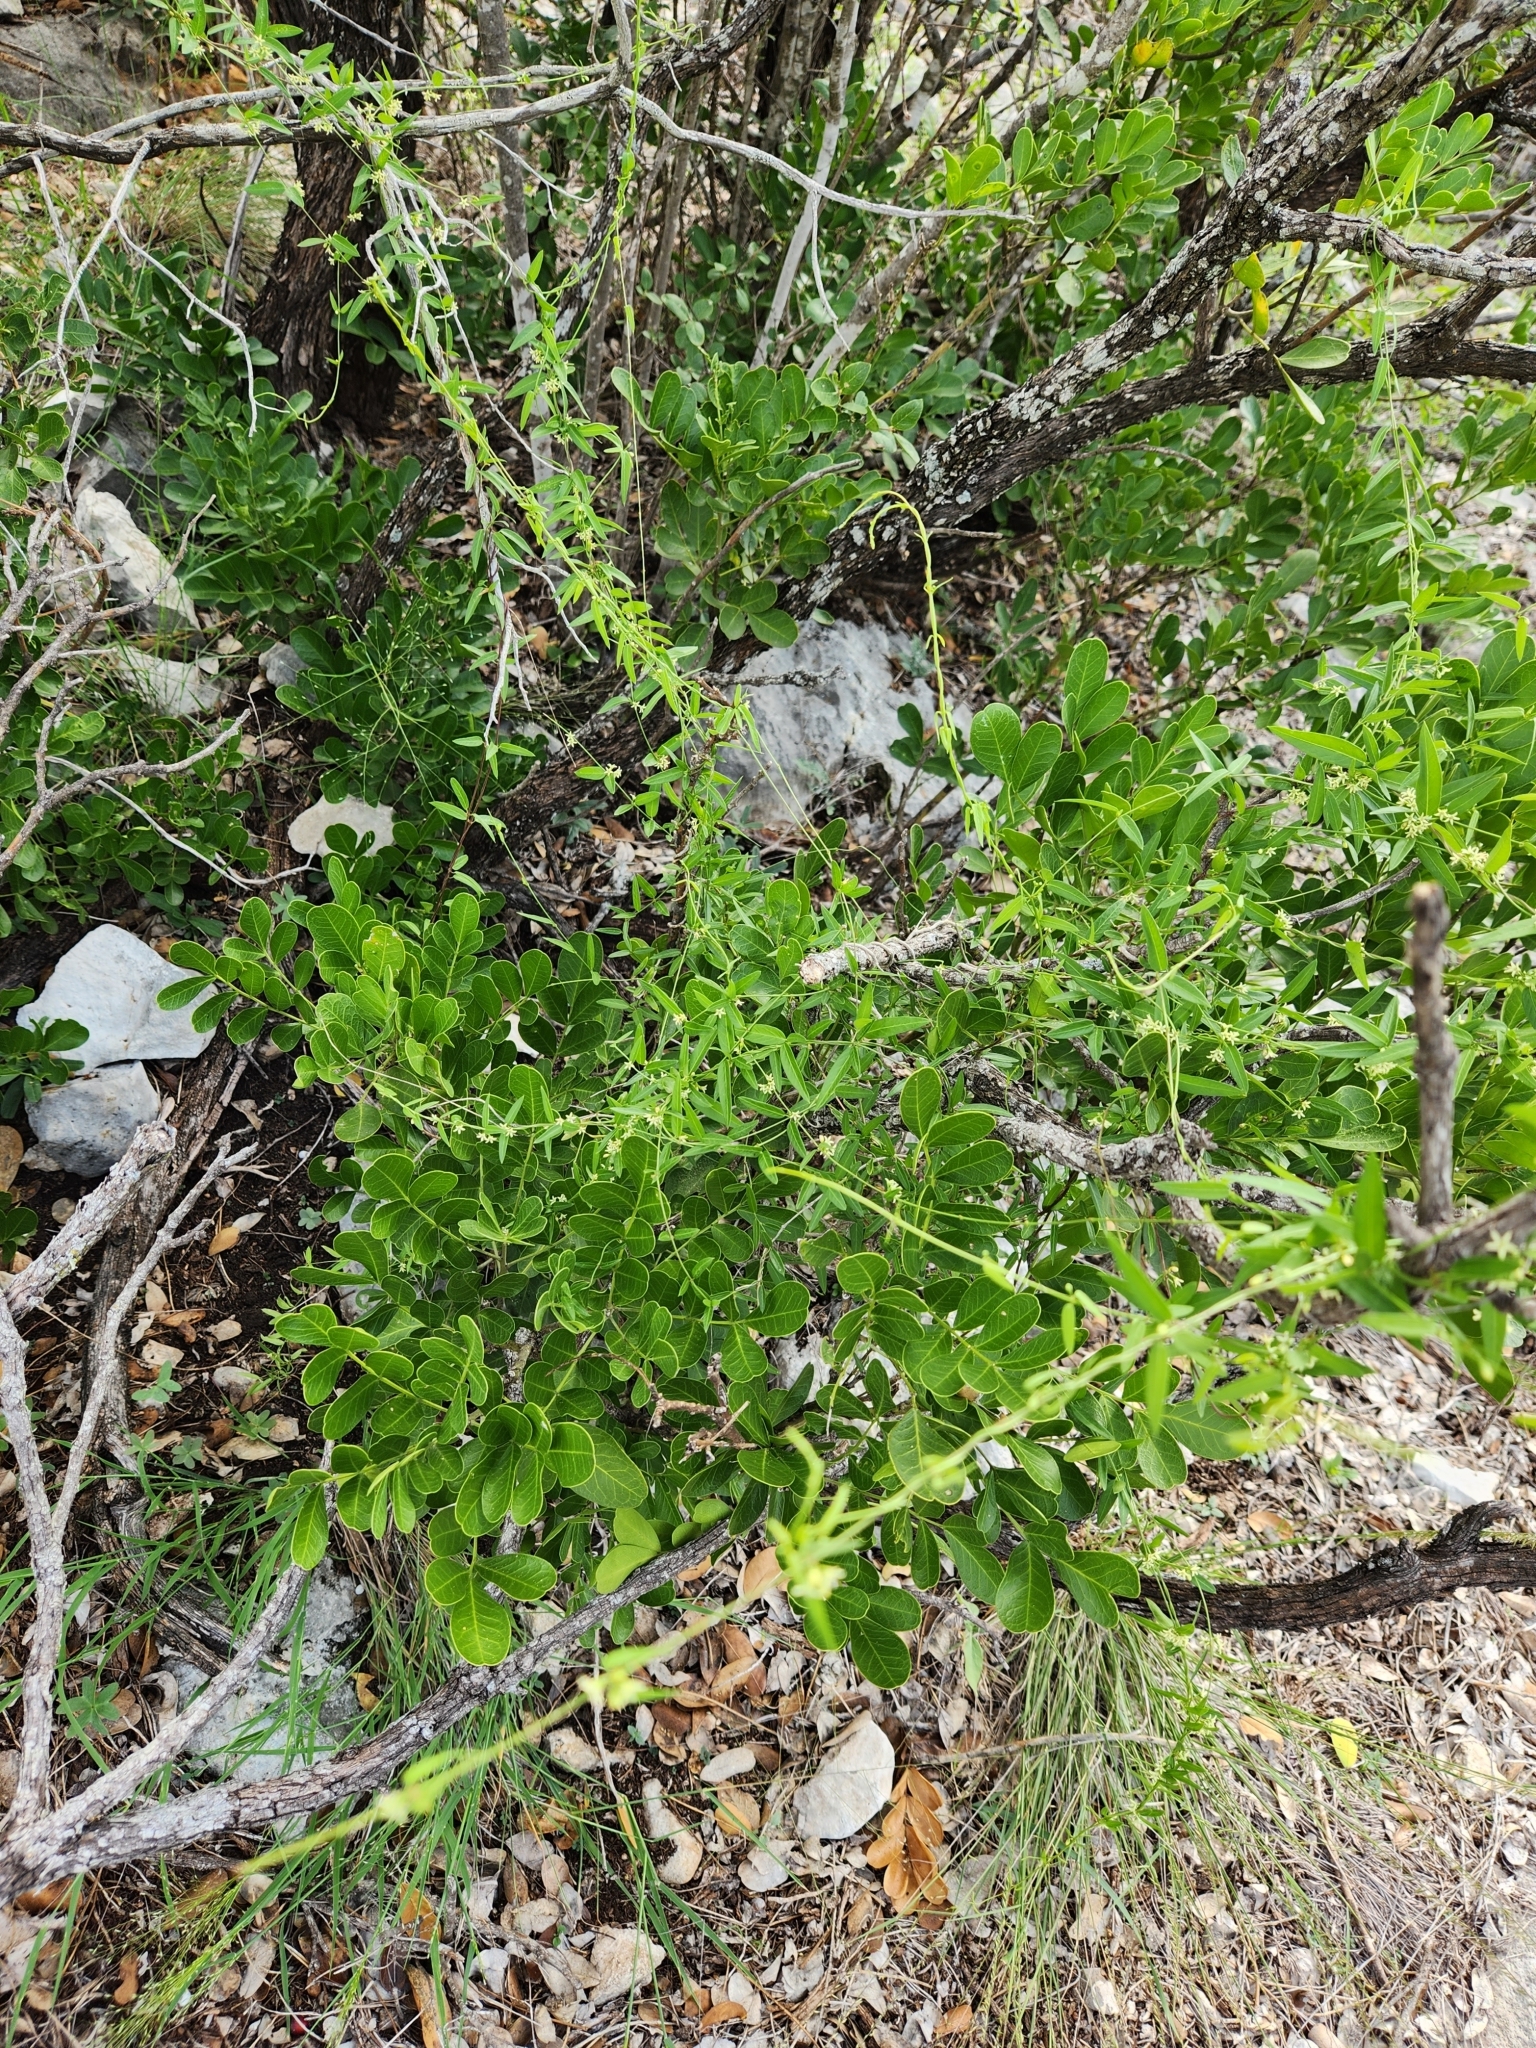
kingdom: Plantae
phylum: Tracheophyta
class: Magnoliopsida
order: Gentianales
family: Apocynaceae
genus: Metastelma
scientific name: Metastelma palmeri
